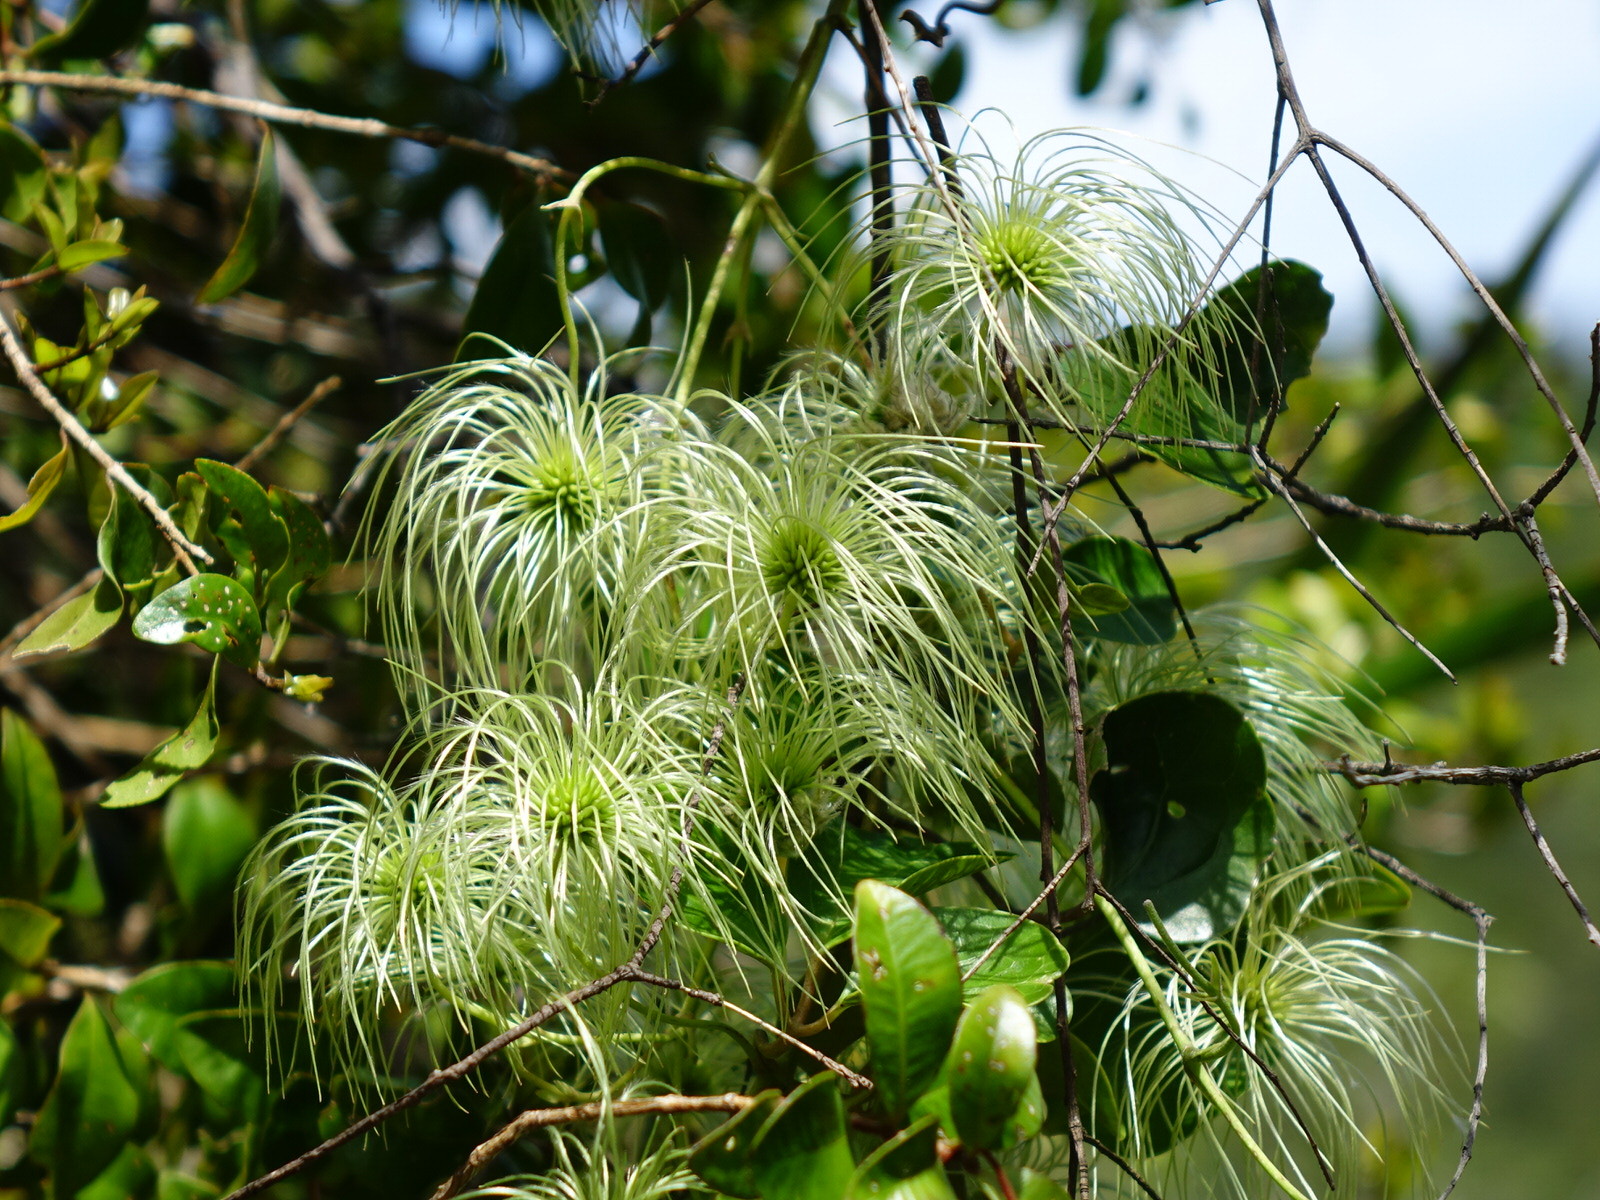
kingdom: Plantae
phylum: Tracheophyta
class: Magnoliopsida
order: Ranunculales
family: Ranunculaceae
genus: Clematis
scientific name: Clematis paniculata
